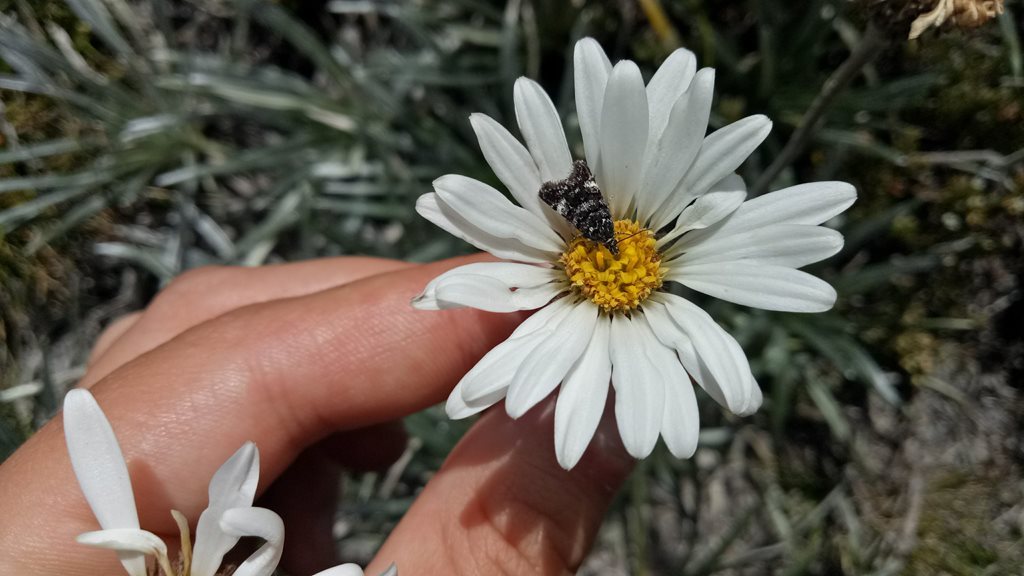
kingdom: Animalia
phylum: Arthropoda
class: Insecta
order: Lepidoptera
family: Crambidae
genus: Heliothela
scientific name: Heliothela aterrima
